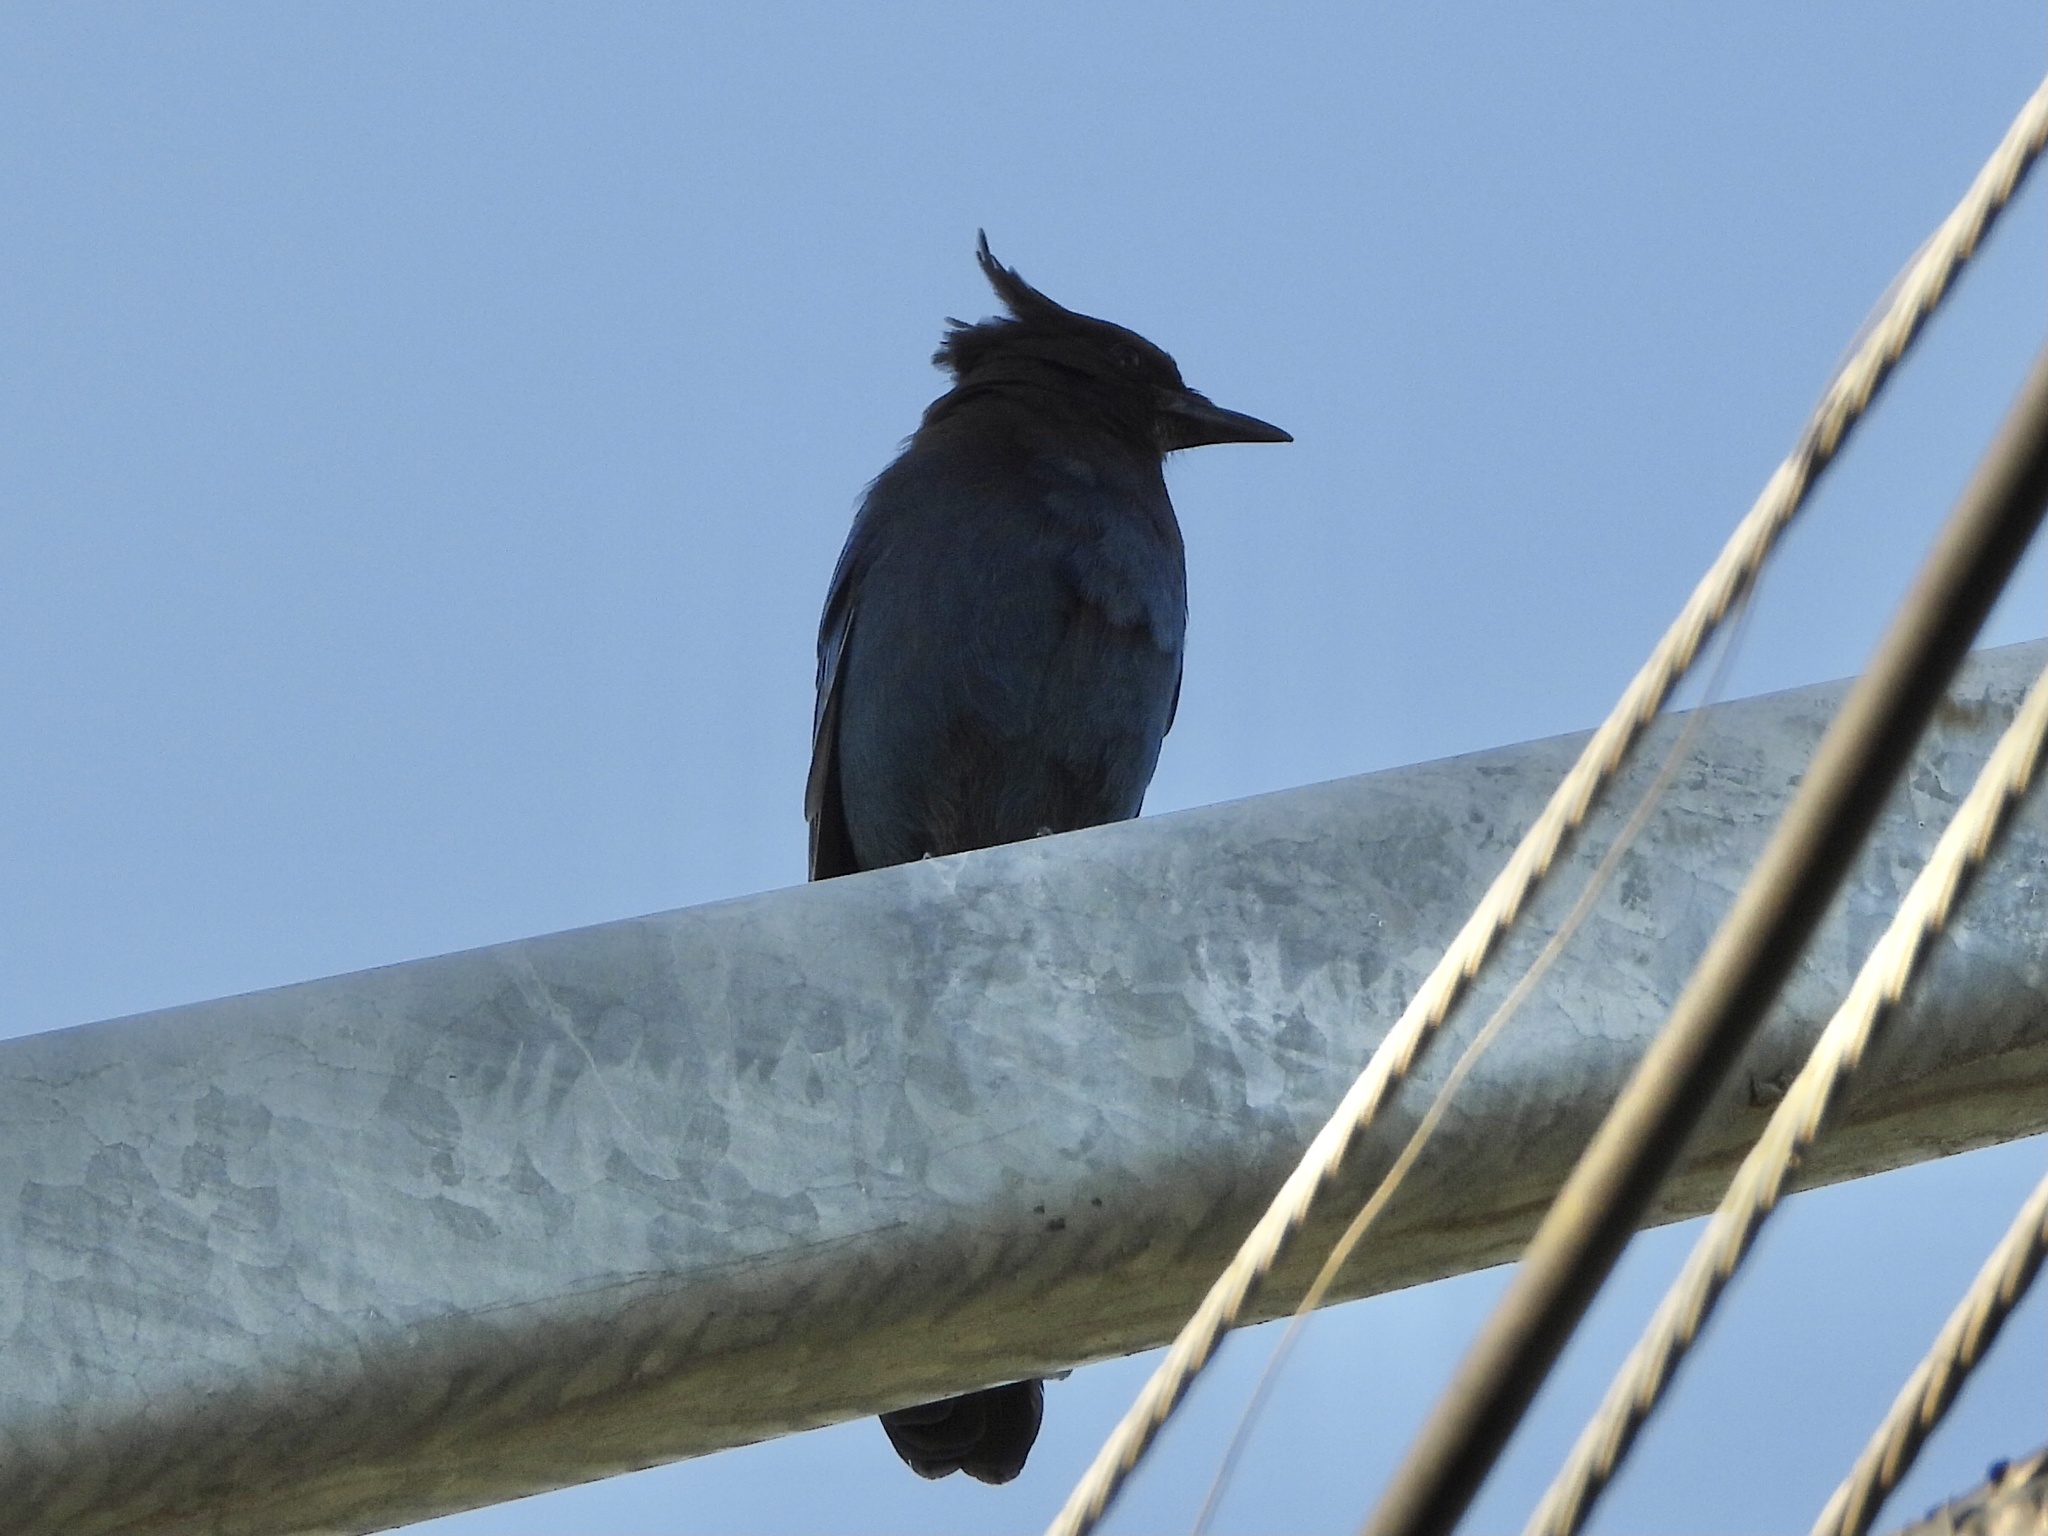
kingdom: Animalia
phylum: Chordata
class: Aves
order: Passeriformes
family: Corvidae
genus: Cyanocitta
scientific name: Cyanocitta stelleri
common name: Steller's jay
